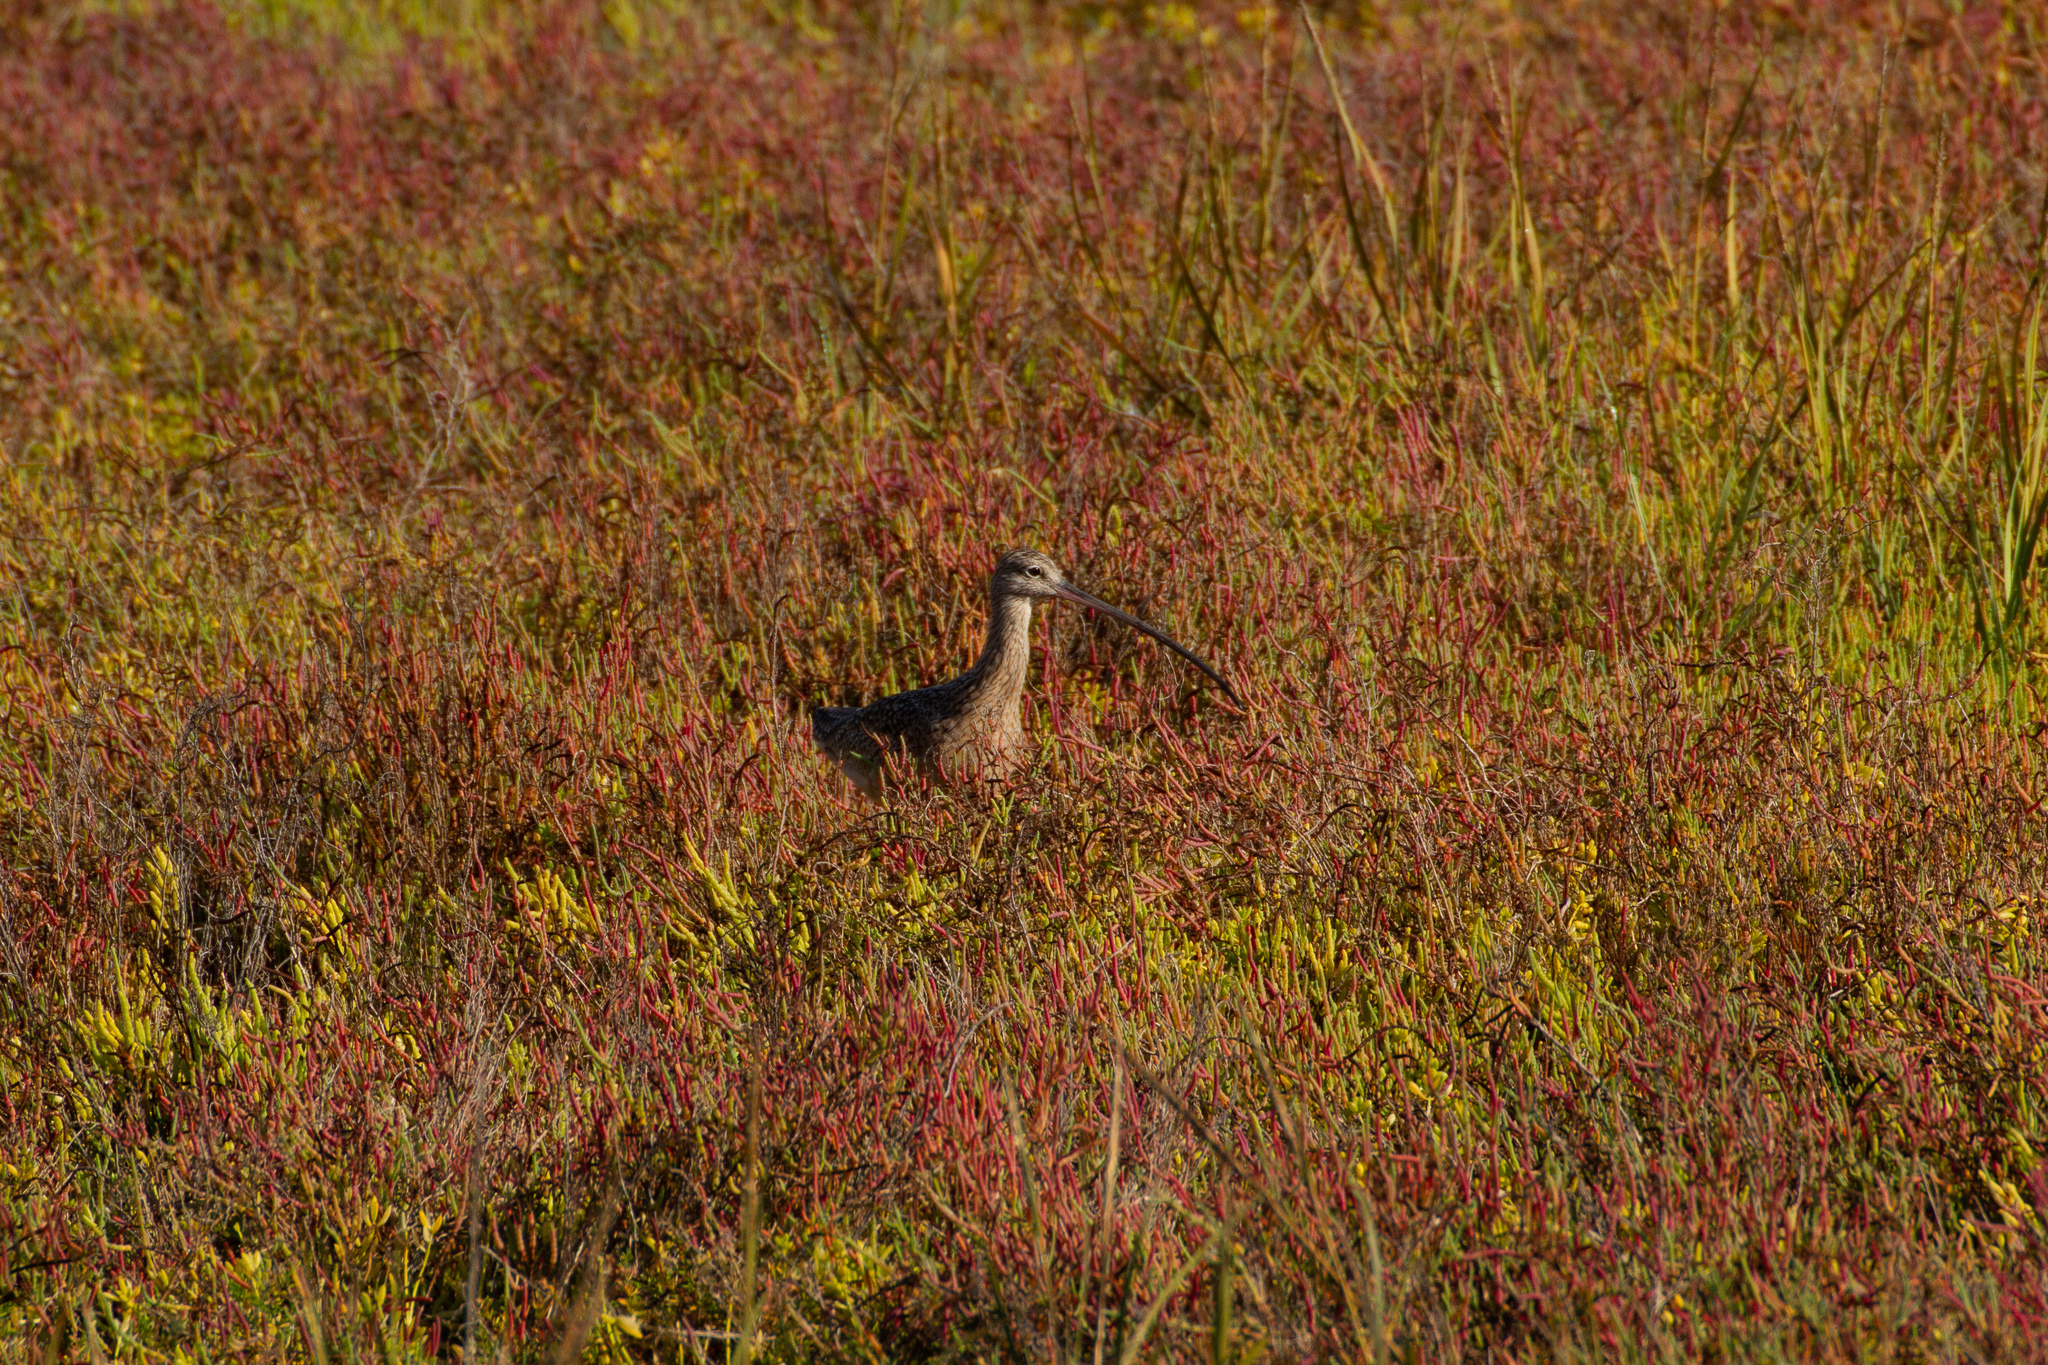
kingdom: Animalia
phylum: Chordata
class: Aves
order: Charadriiformes
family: Scolopacidae
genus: Numenius
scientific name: Numenius americanus
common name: Long-billed curlew
